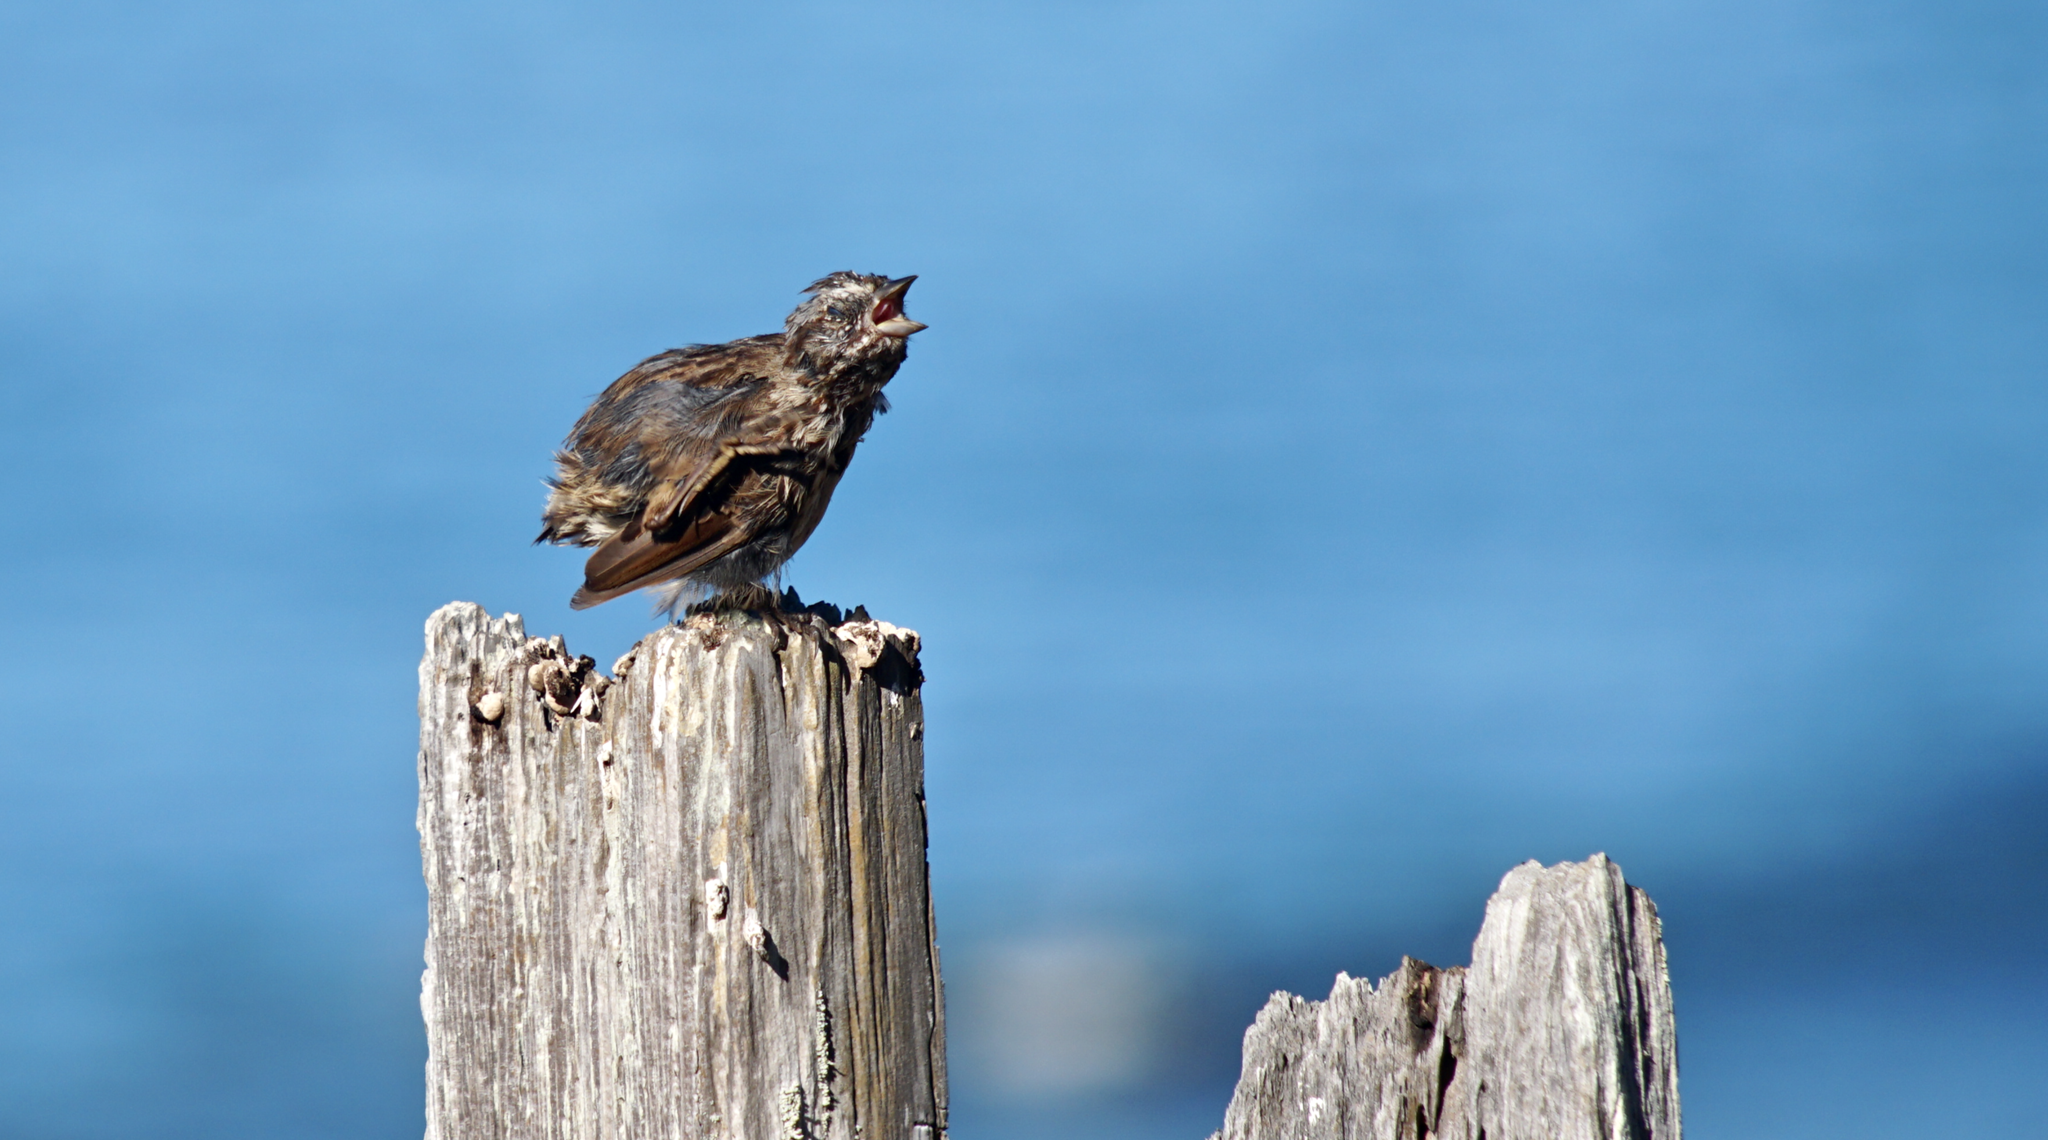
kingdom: Animalia
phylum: Chordata
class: Aves
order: Passeriformes
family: Passerellidae
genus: Melospiza
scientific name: Melospiza melodia
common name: Song sparrow
